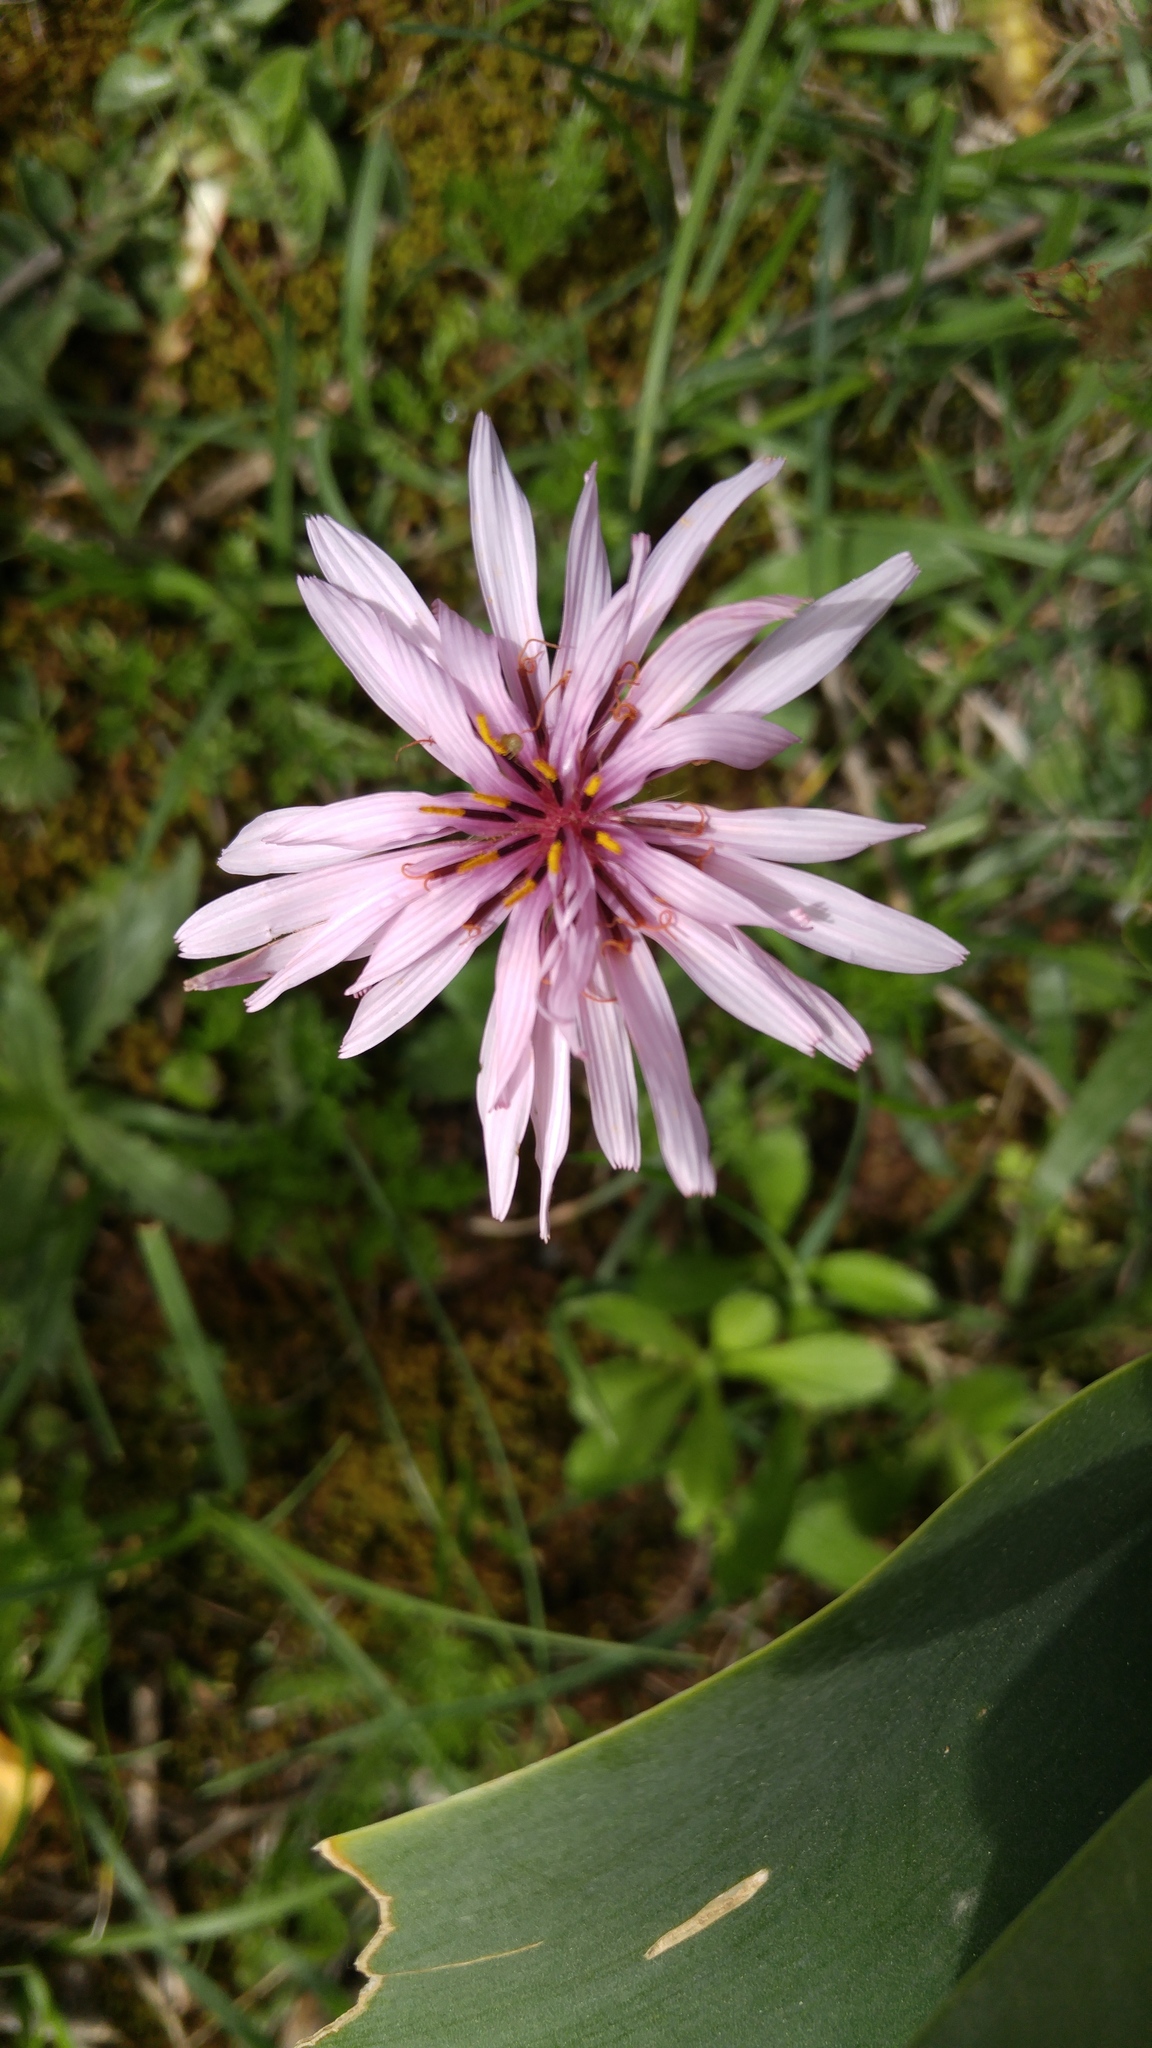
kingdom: Plantae
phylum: Tracheophyta
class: Magnoliopsida
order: Asterales
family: Asteraceae
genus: Pseudopodospermum
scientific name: Pseudopodospermum undulatum
